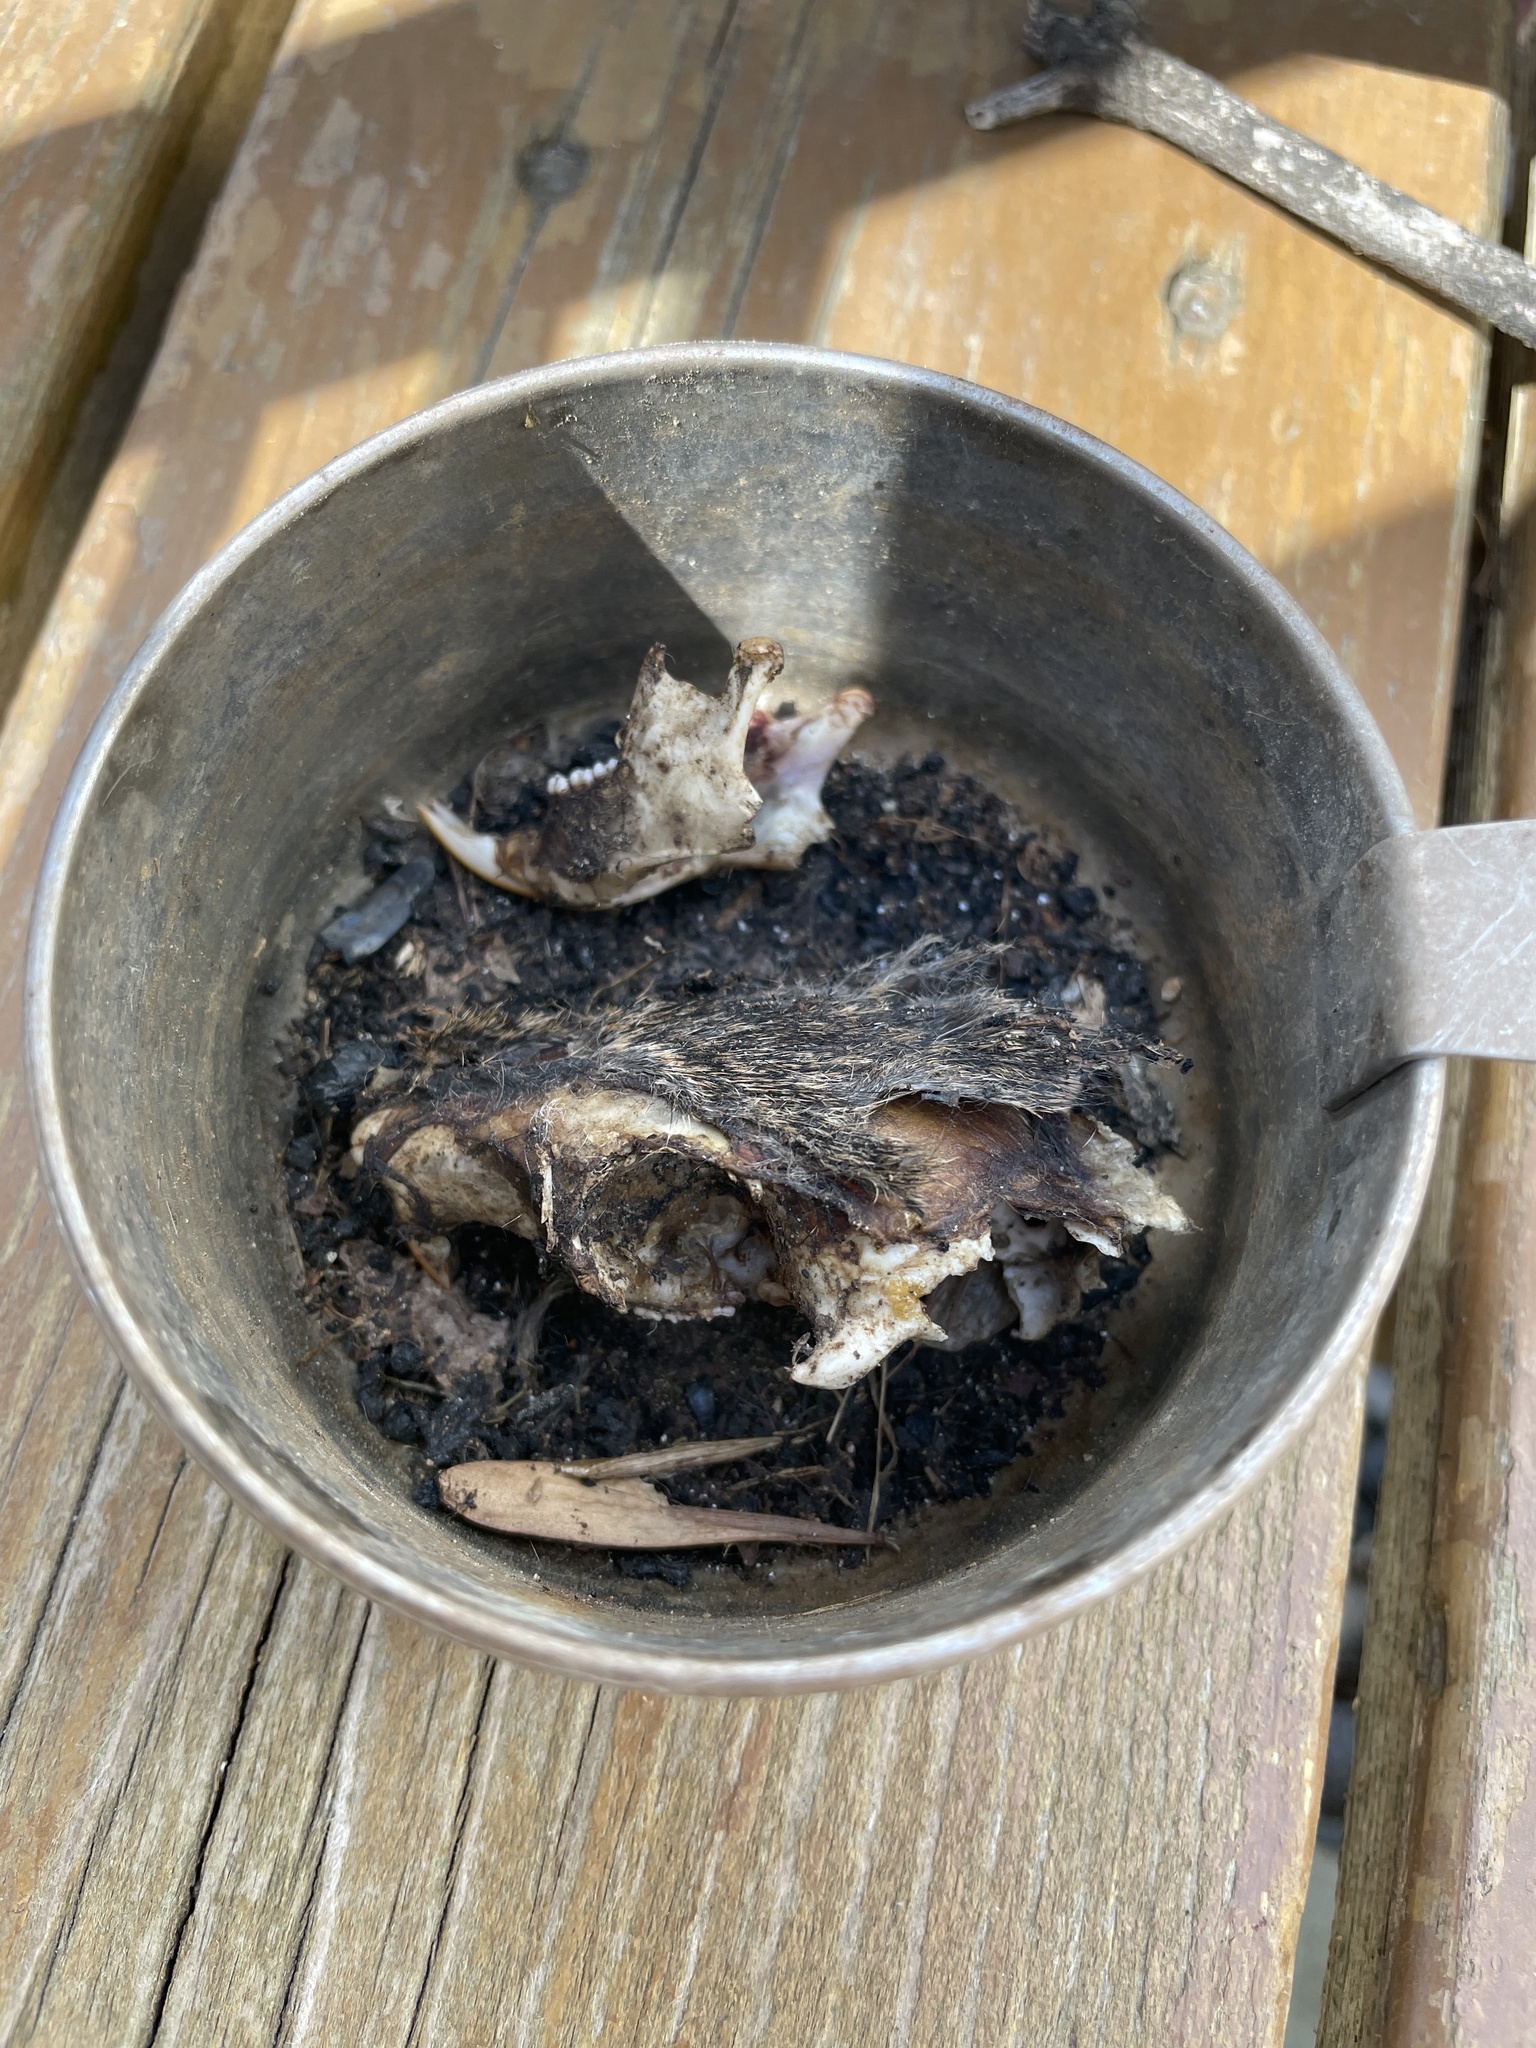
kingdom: Animalia
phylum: Chordata
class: Mammalia
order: Rodentia
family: Sciuridae
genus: Sciurus
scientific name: Sciurus carolinensis
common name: Eastern gray squirrel
